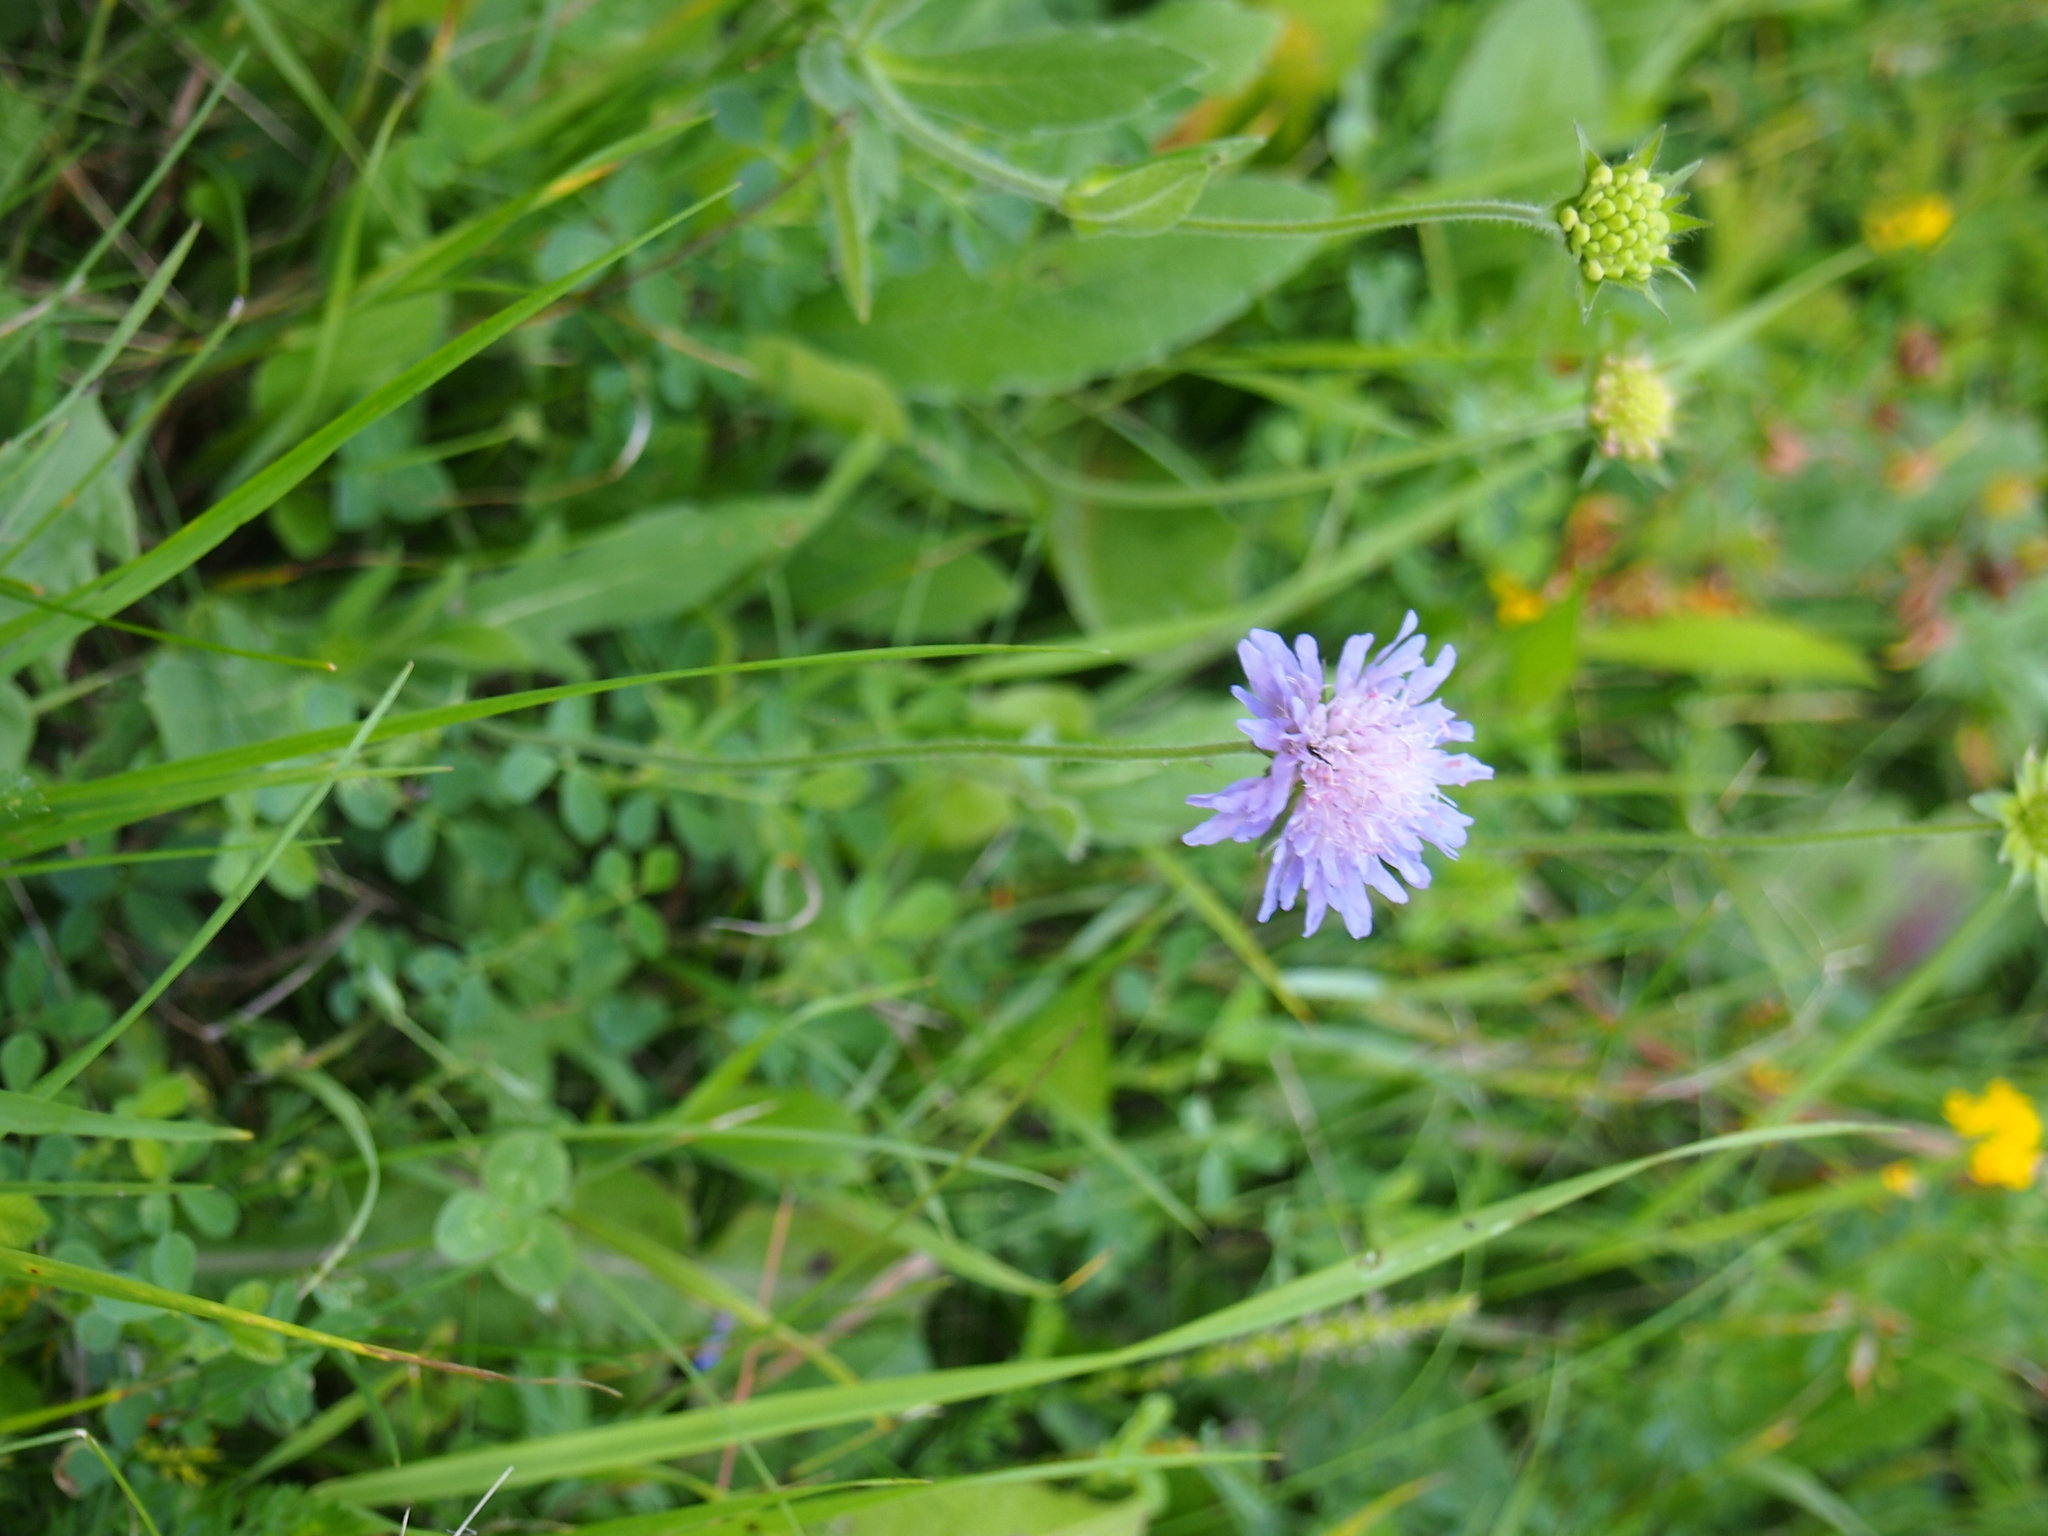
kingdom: Plantae
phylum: Tracheophyta
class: Magnoliopsida
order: Dipsacales
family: Caprifoliaceae
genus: Knautia
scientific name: Knautia arvensis
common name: Field scabiosa
